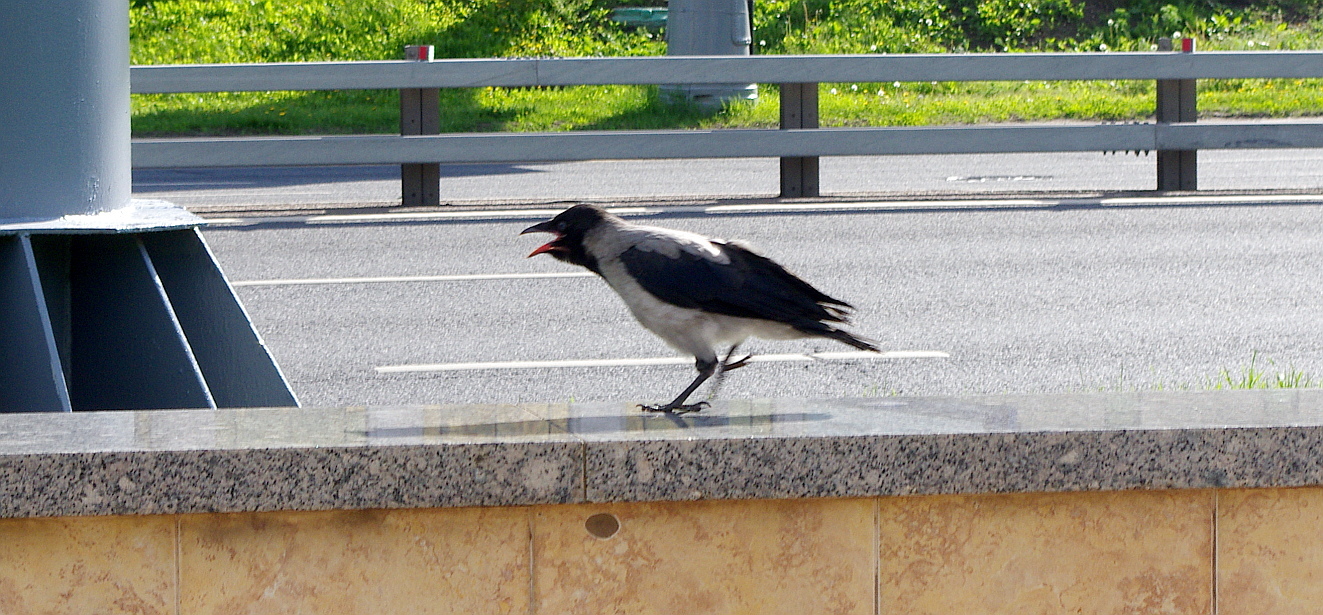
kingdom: Animalia
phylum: Chordata
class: Aves
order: Passeriformes
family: Corvidae
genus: Corvus
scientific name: Corvus cornix
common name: Hooded crow
